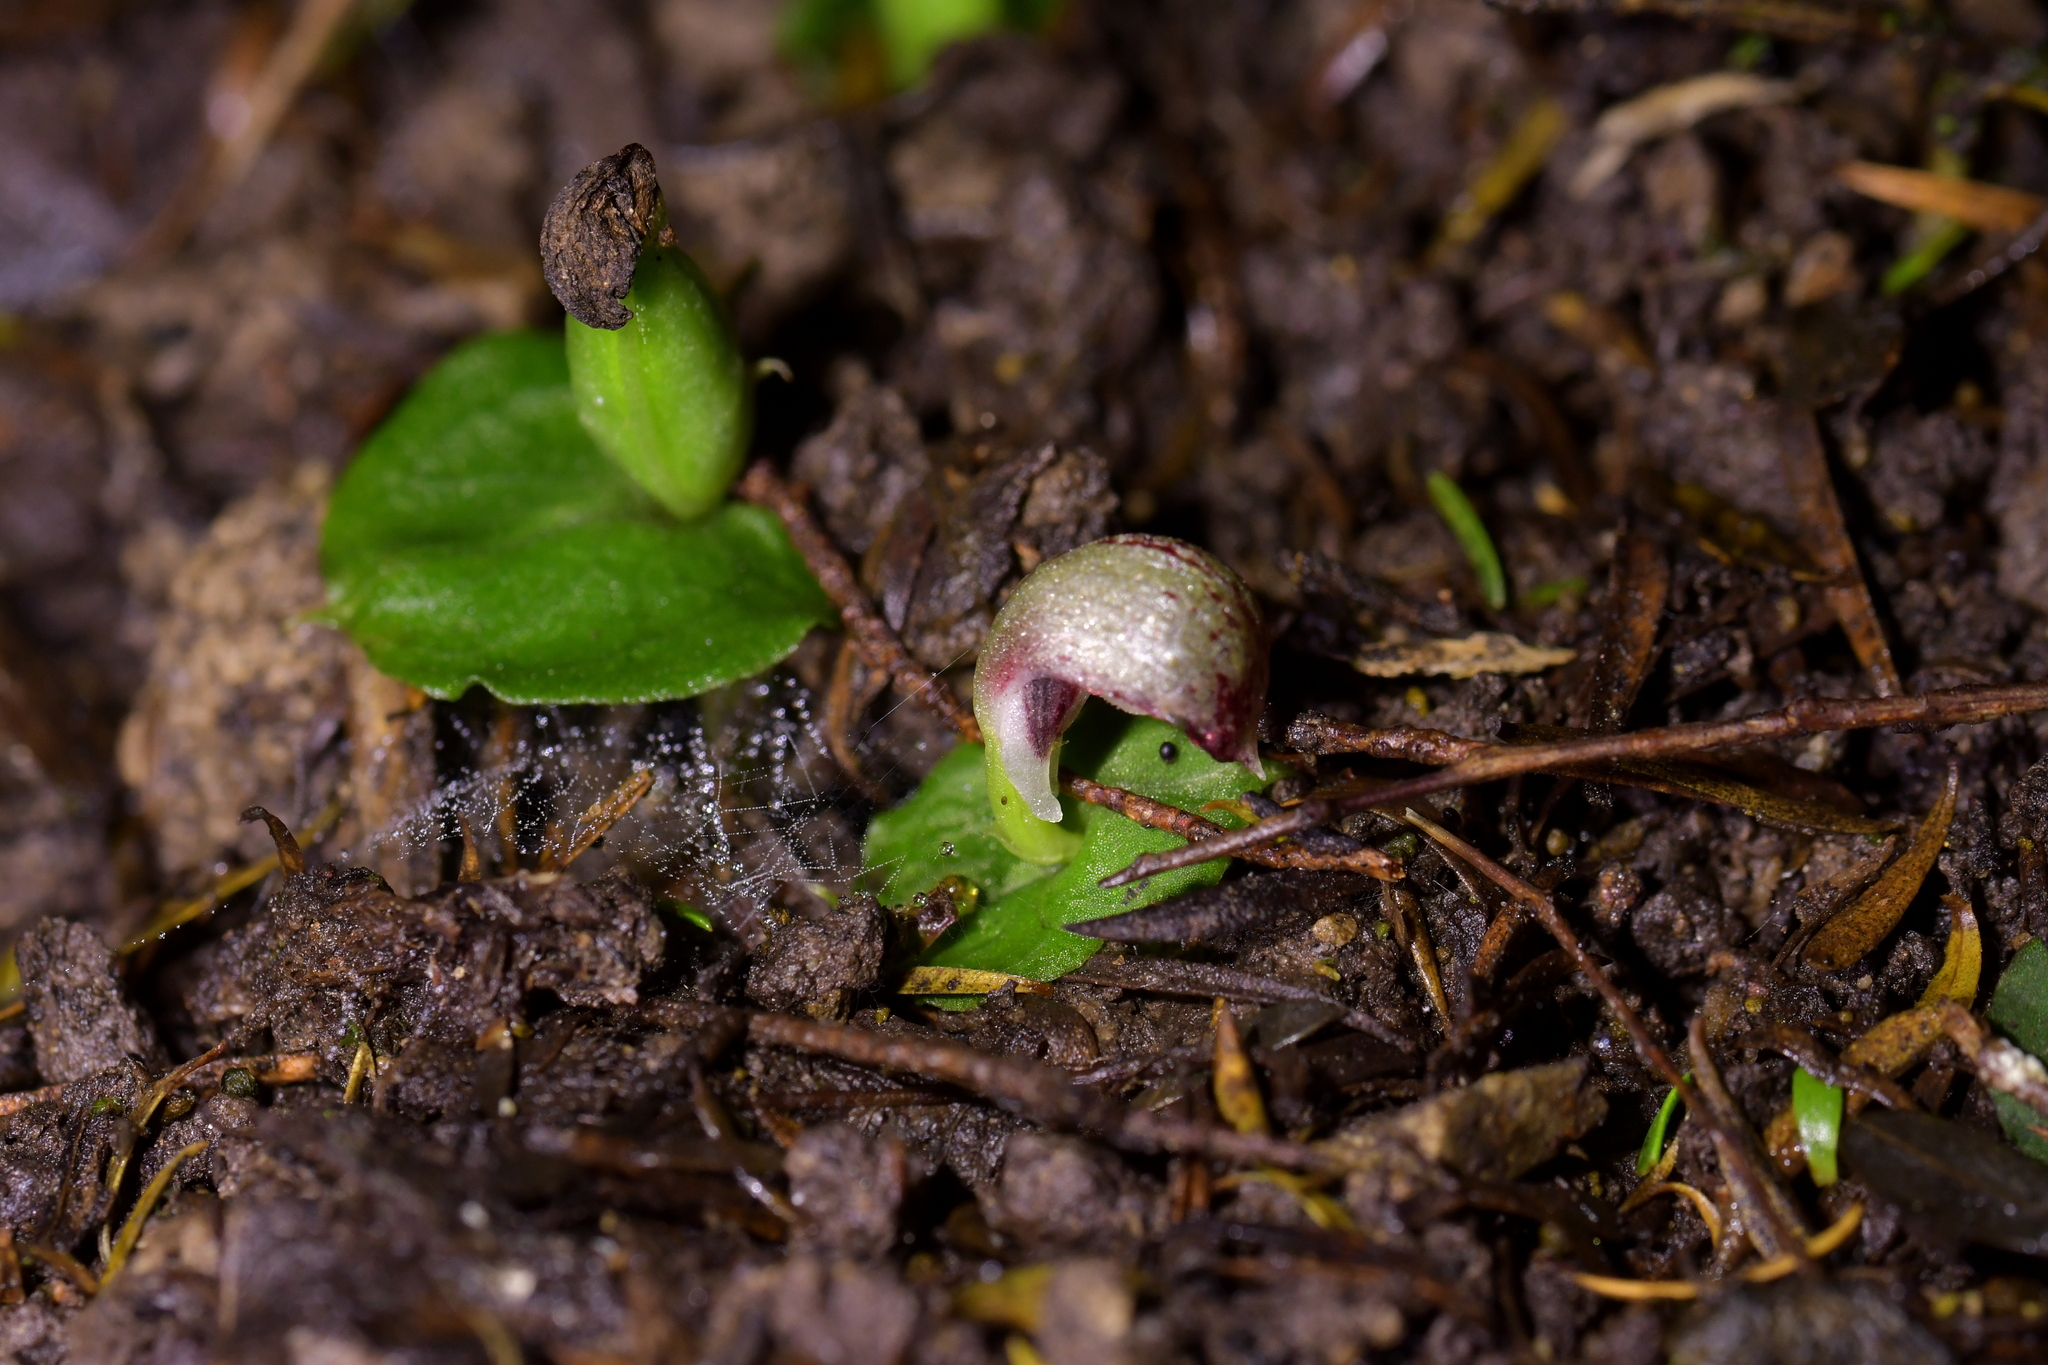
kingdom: Plantae
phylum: Tracheophyta
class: Liliopsida
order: Asparagales
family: Orchidaceae
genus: Corybas
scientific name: Corybas cheesemanii
